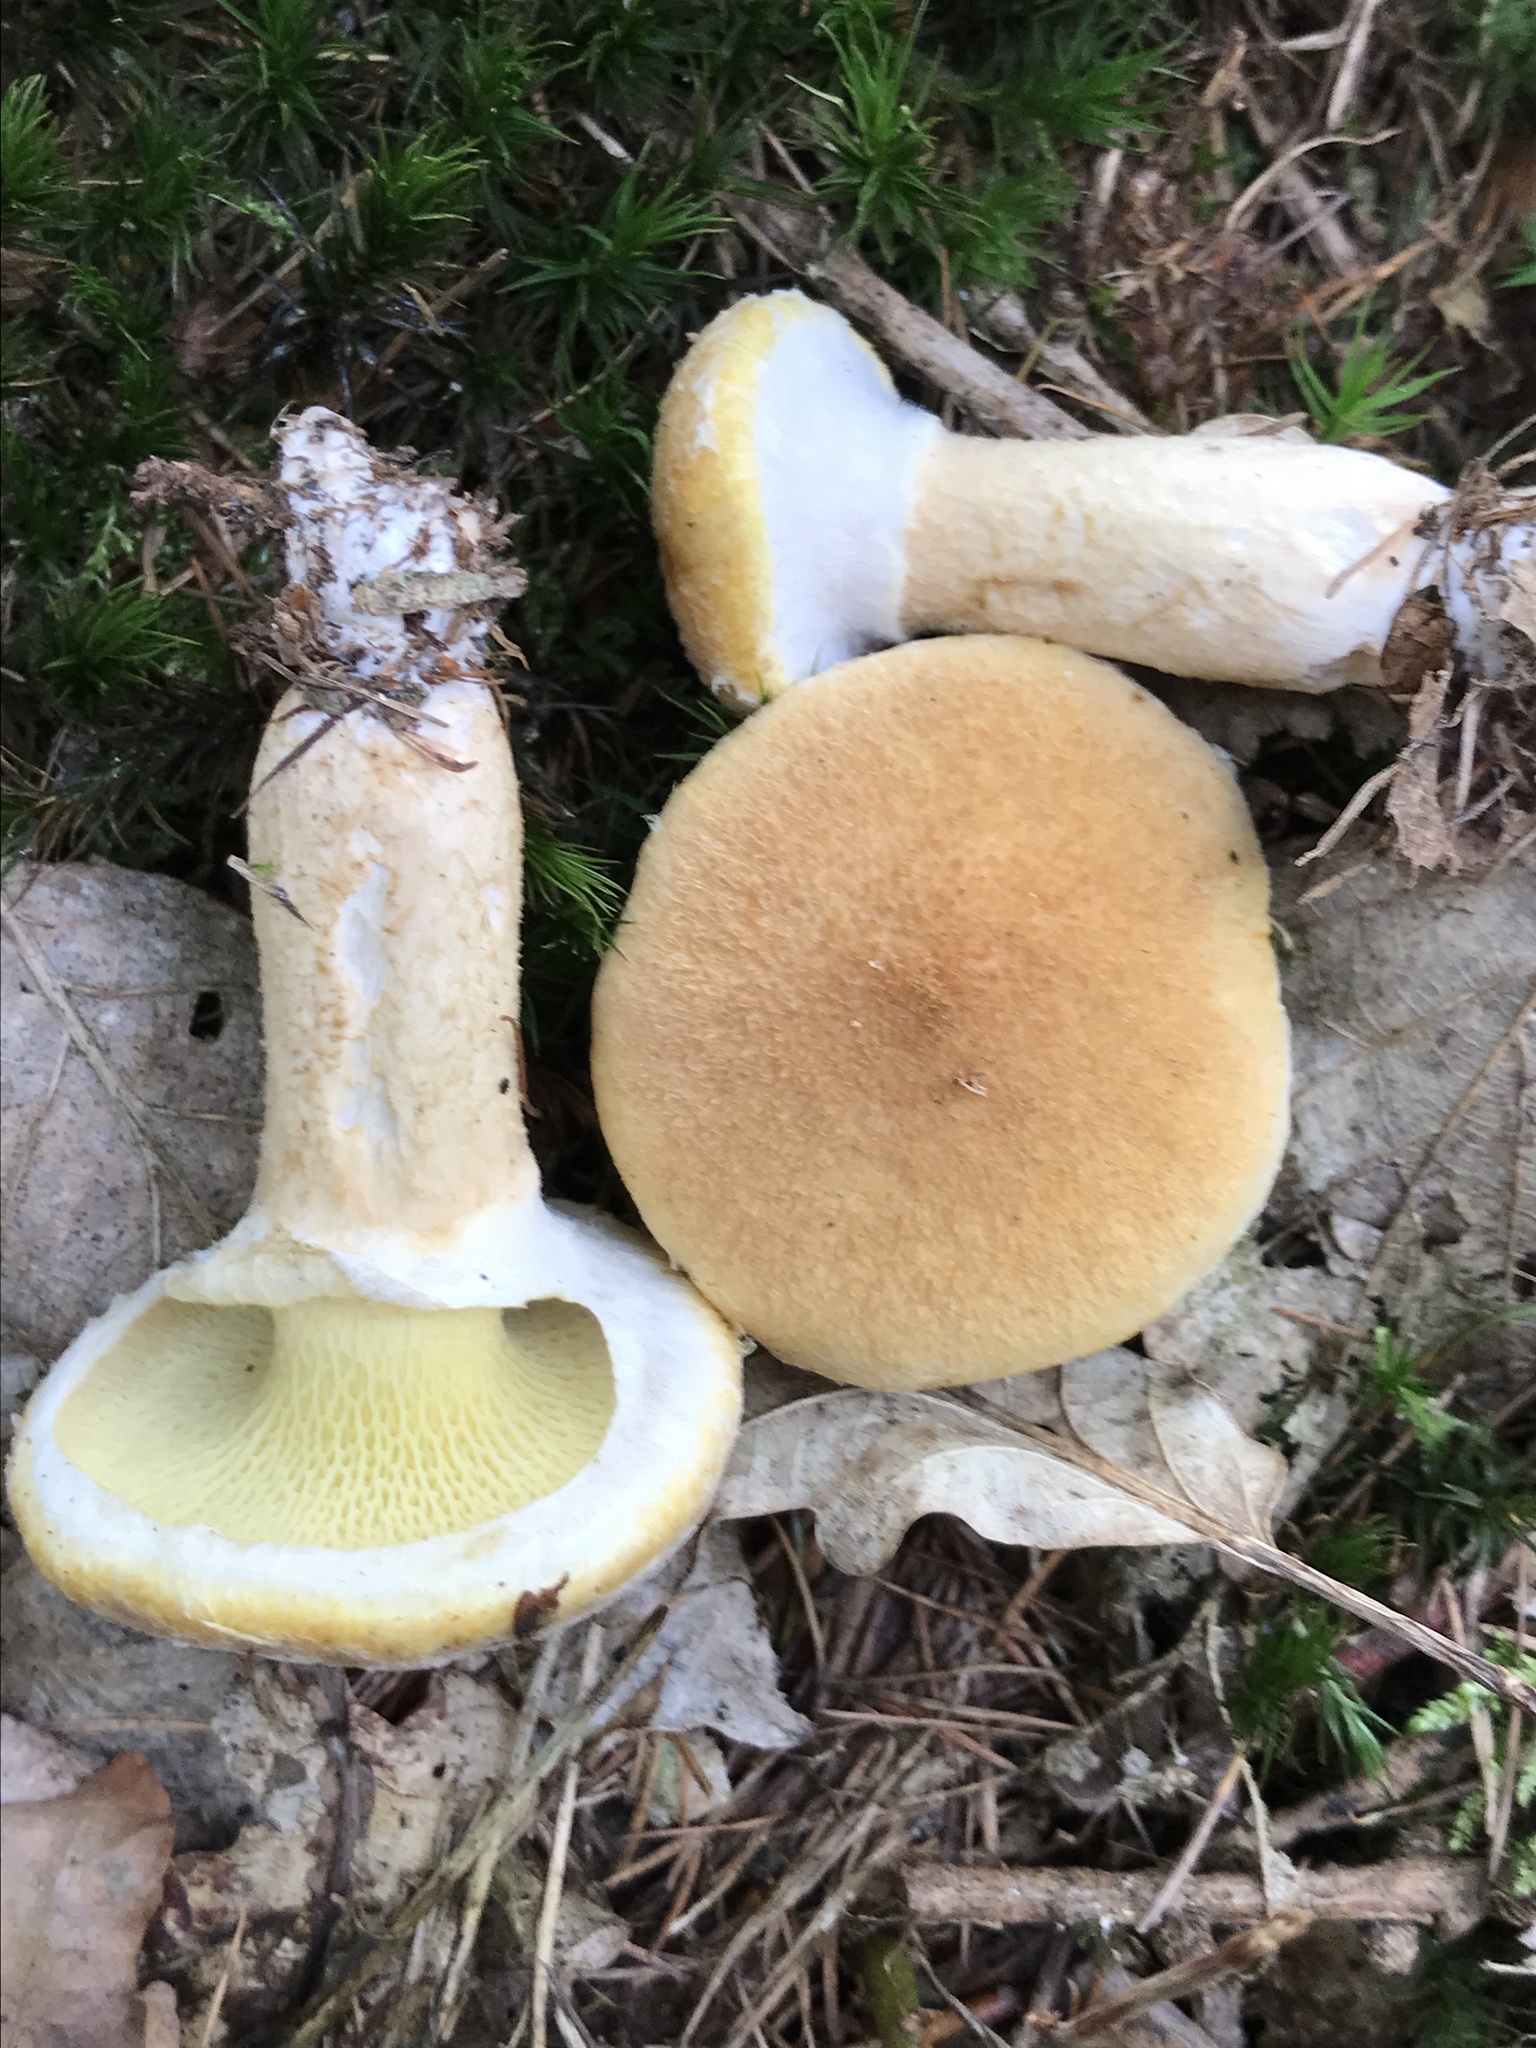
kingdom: Fungi
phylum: Basidiomycota
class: Agaricomycetes
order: Boletales
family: Suillaceae
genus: Suillus
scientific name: Suillus cavipes
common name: Hollow bolete
